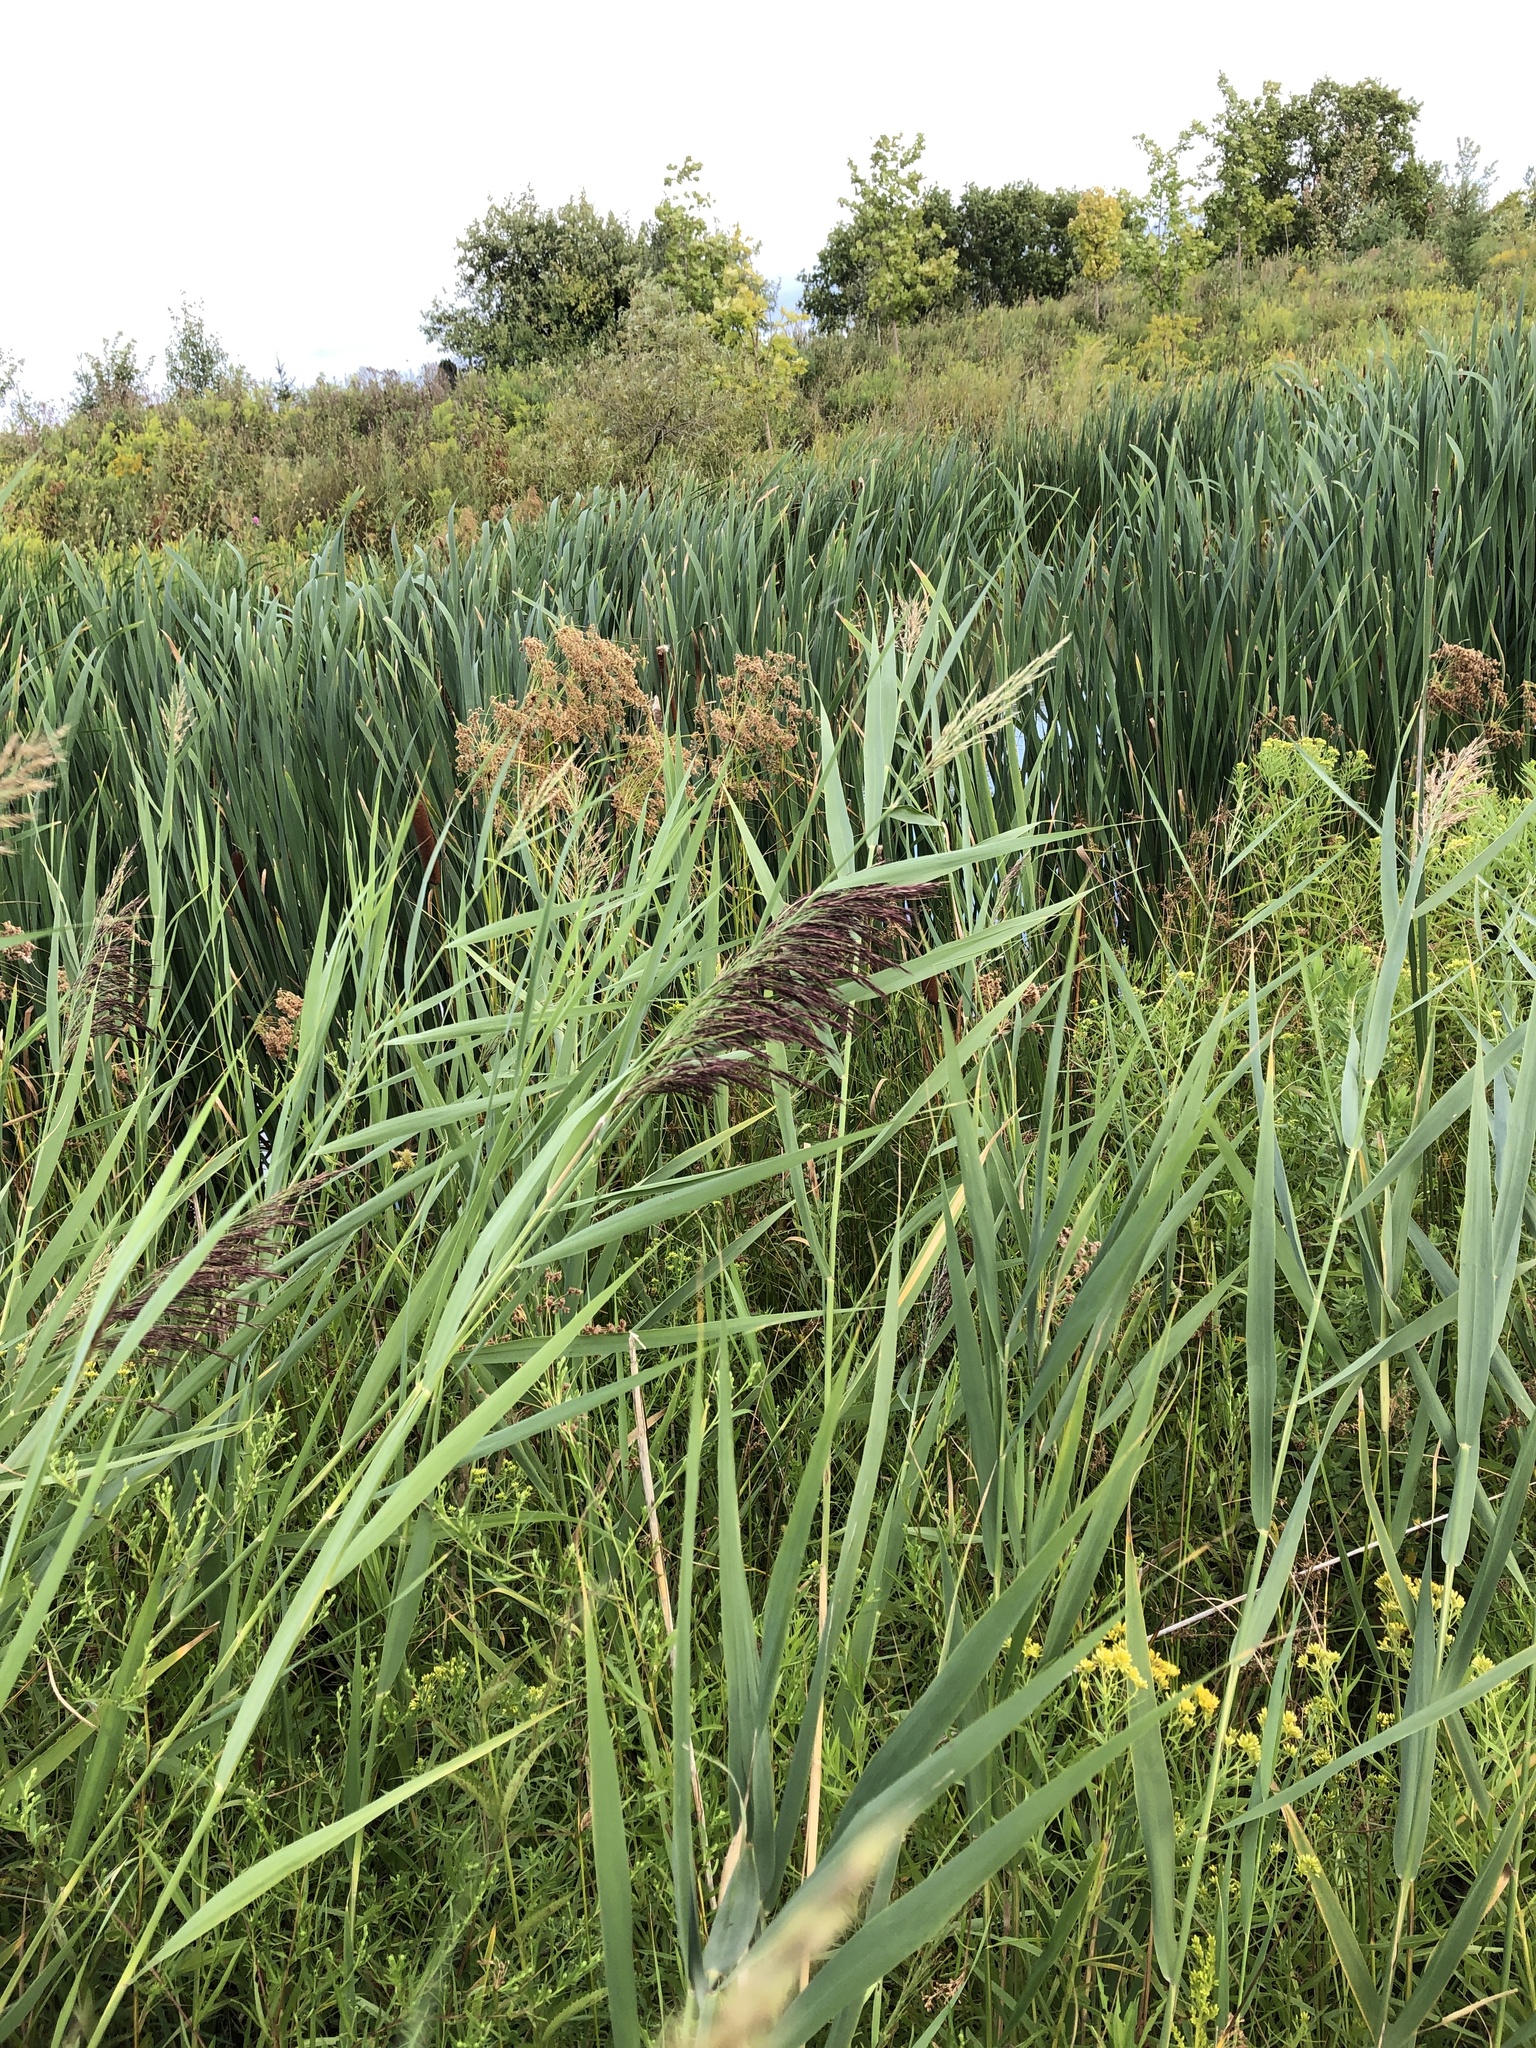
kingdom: Plantae
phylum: Tracheophyta
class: Liliopsida
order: Poales
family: Poaceae
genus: Phragmites
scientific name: Phragmites australis
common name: Common reed
